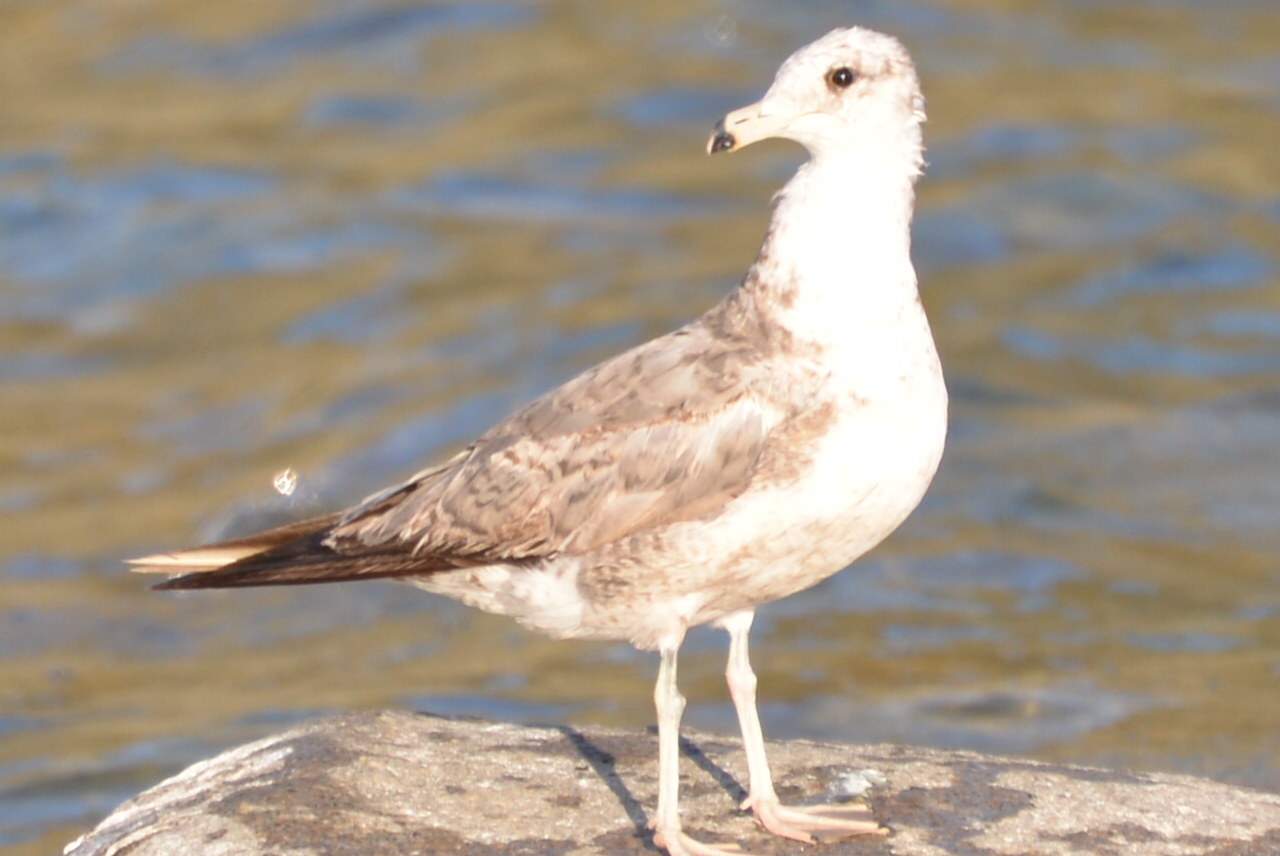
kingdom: Animalia
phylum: Chordata
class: Aves
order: Charadriiformes
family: Laridae
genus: Larus
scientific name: Larus californicus
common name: California gull
